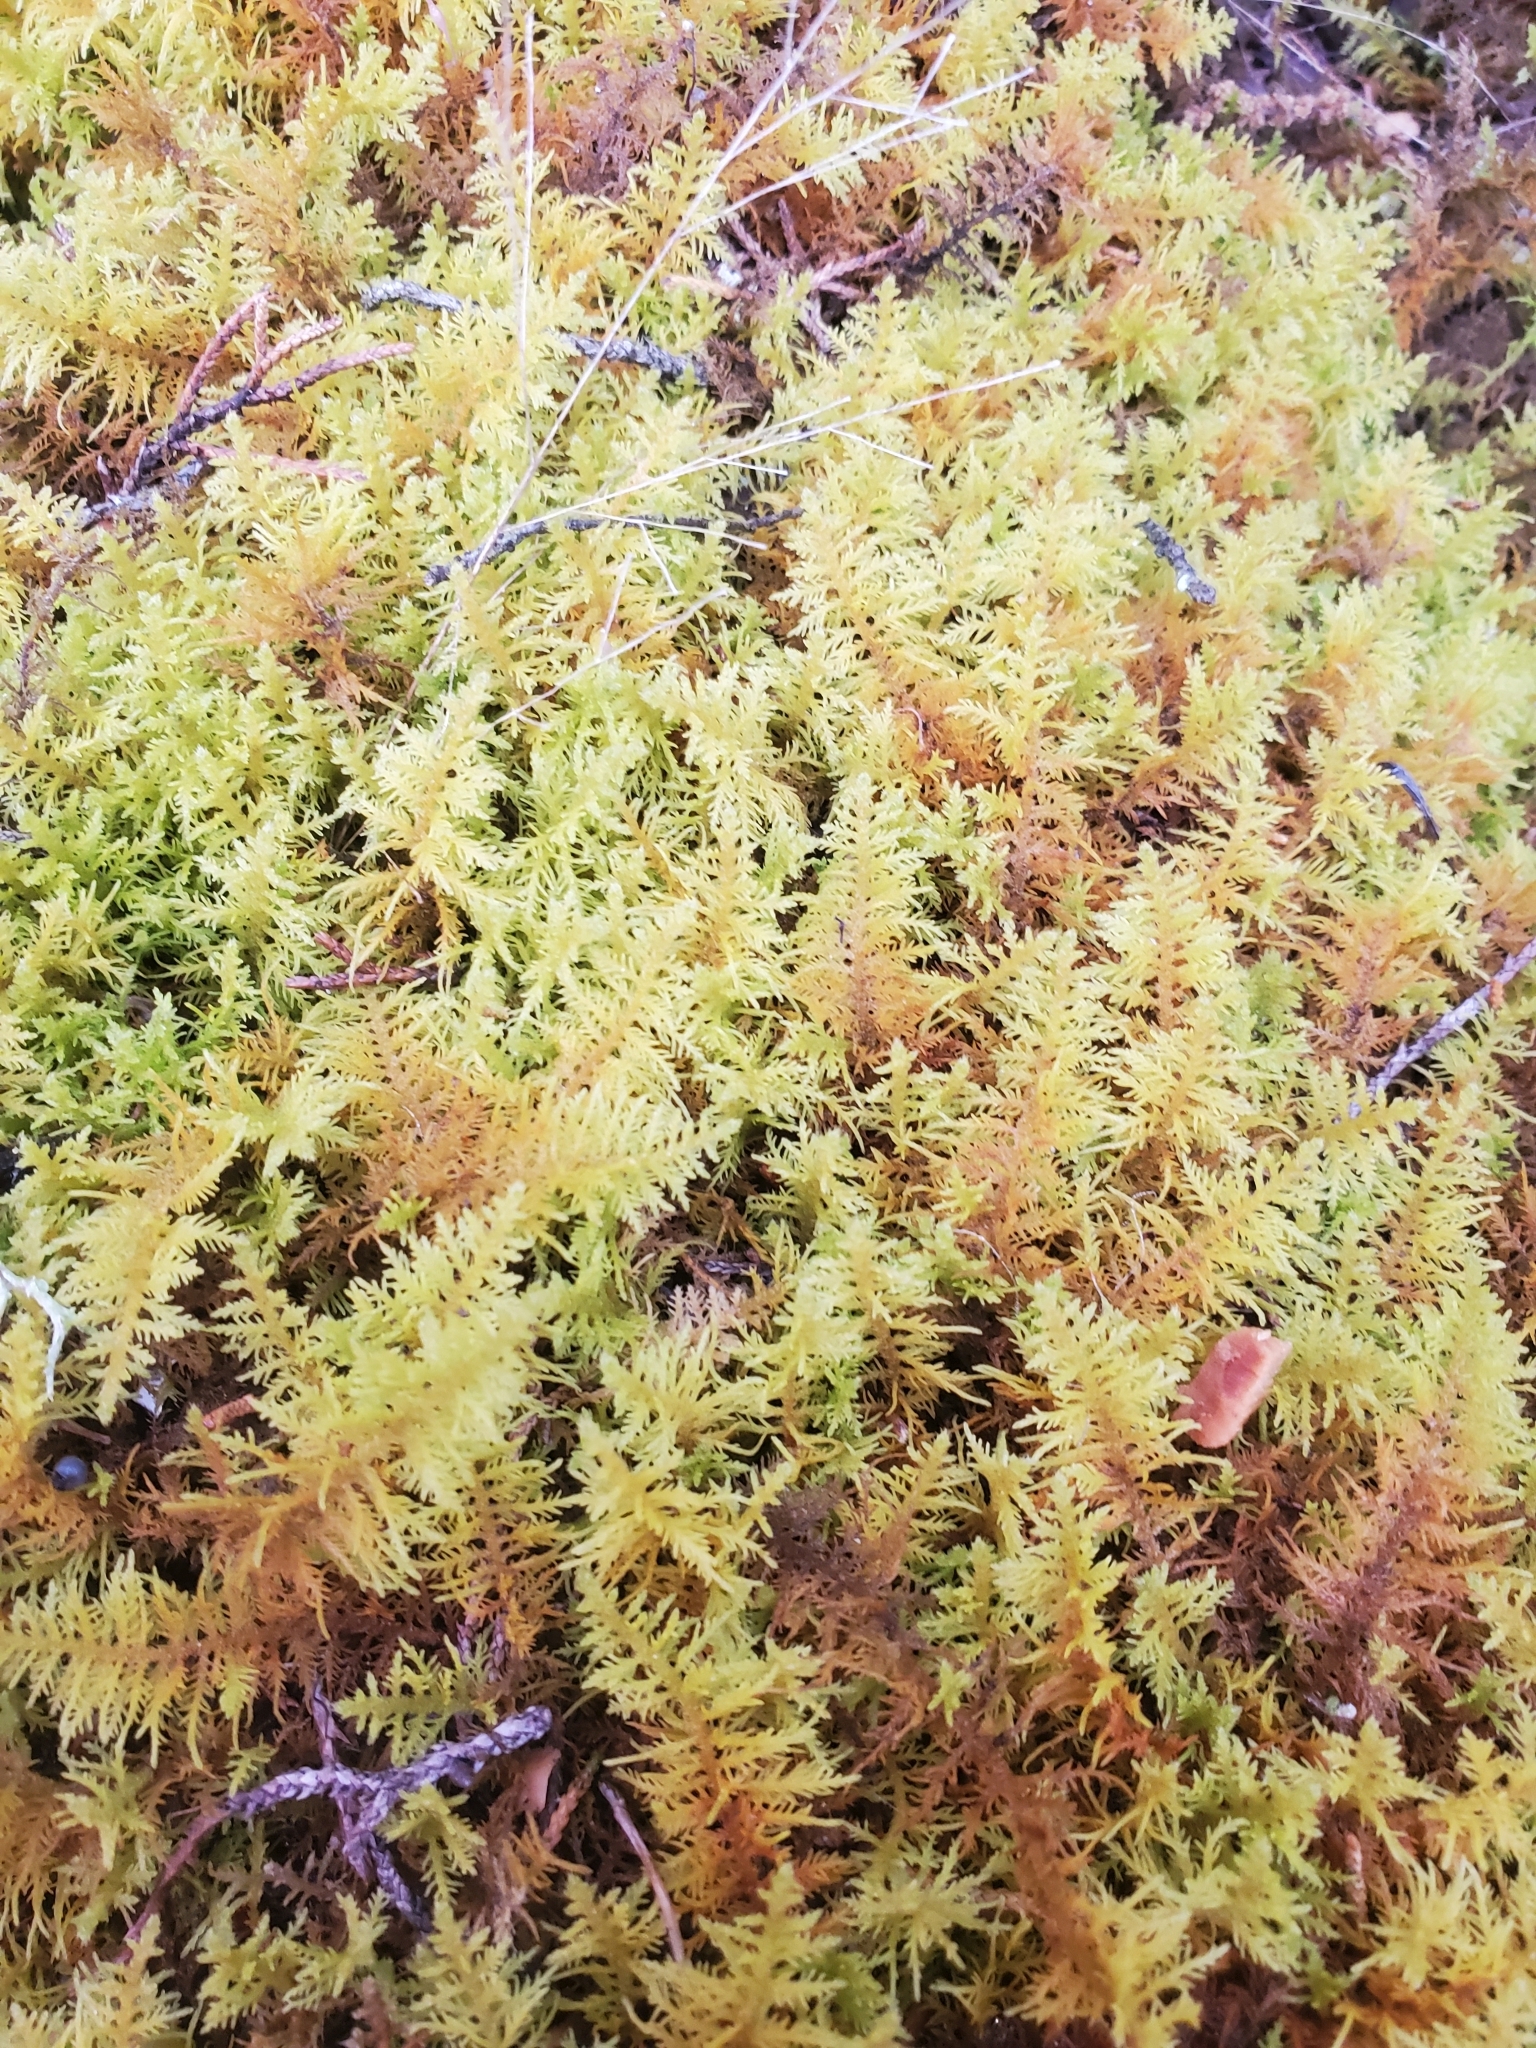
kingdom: Plantae
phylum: Bryophyta
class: Bryopsida
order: Hypnales
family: Thuidiaceae
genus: Thuidium
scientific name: Thuidium delicatulum
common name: Delicate fern moss
